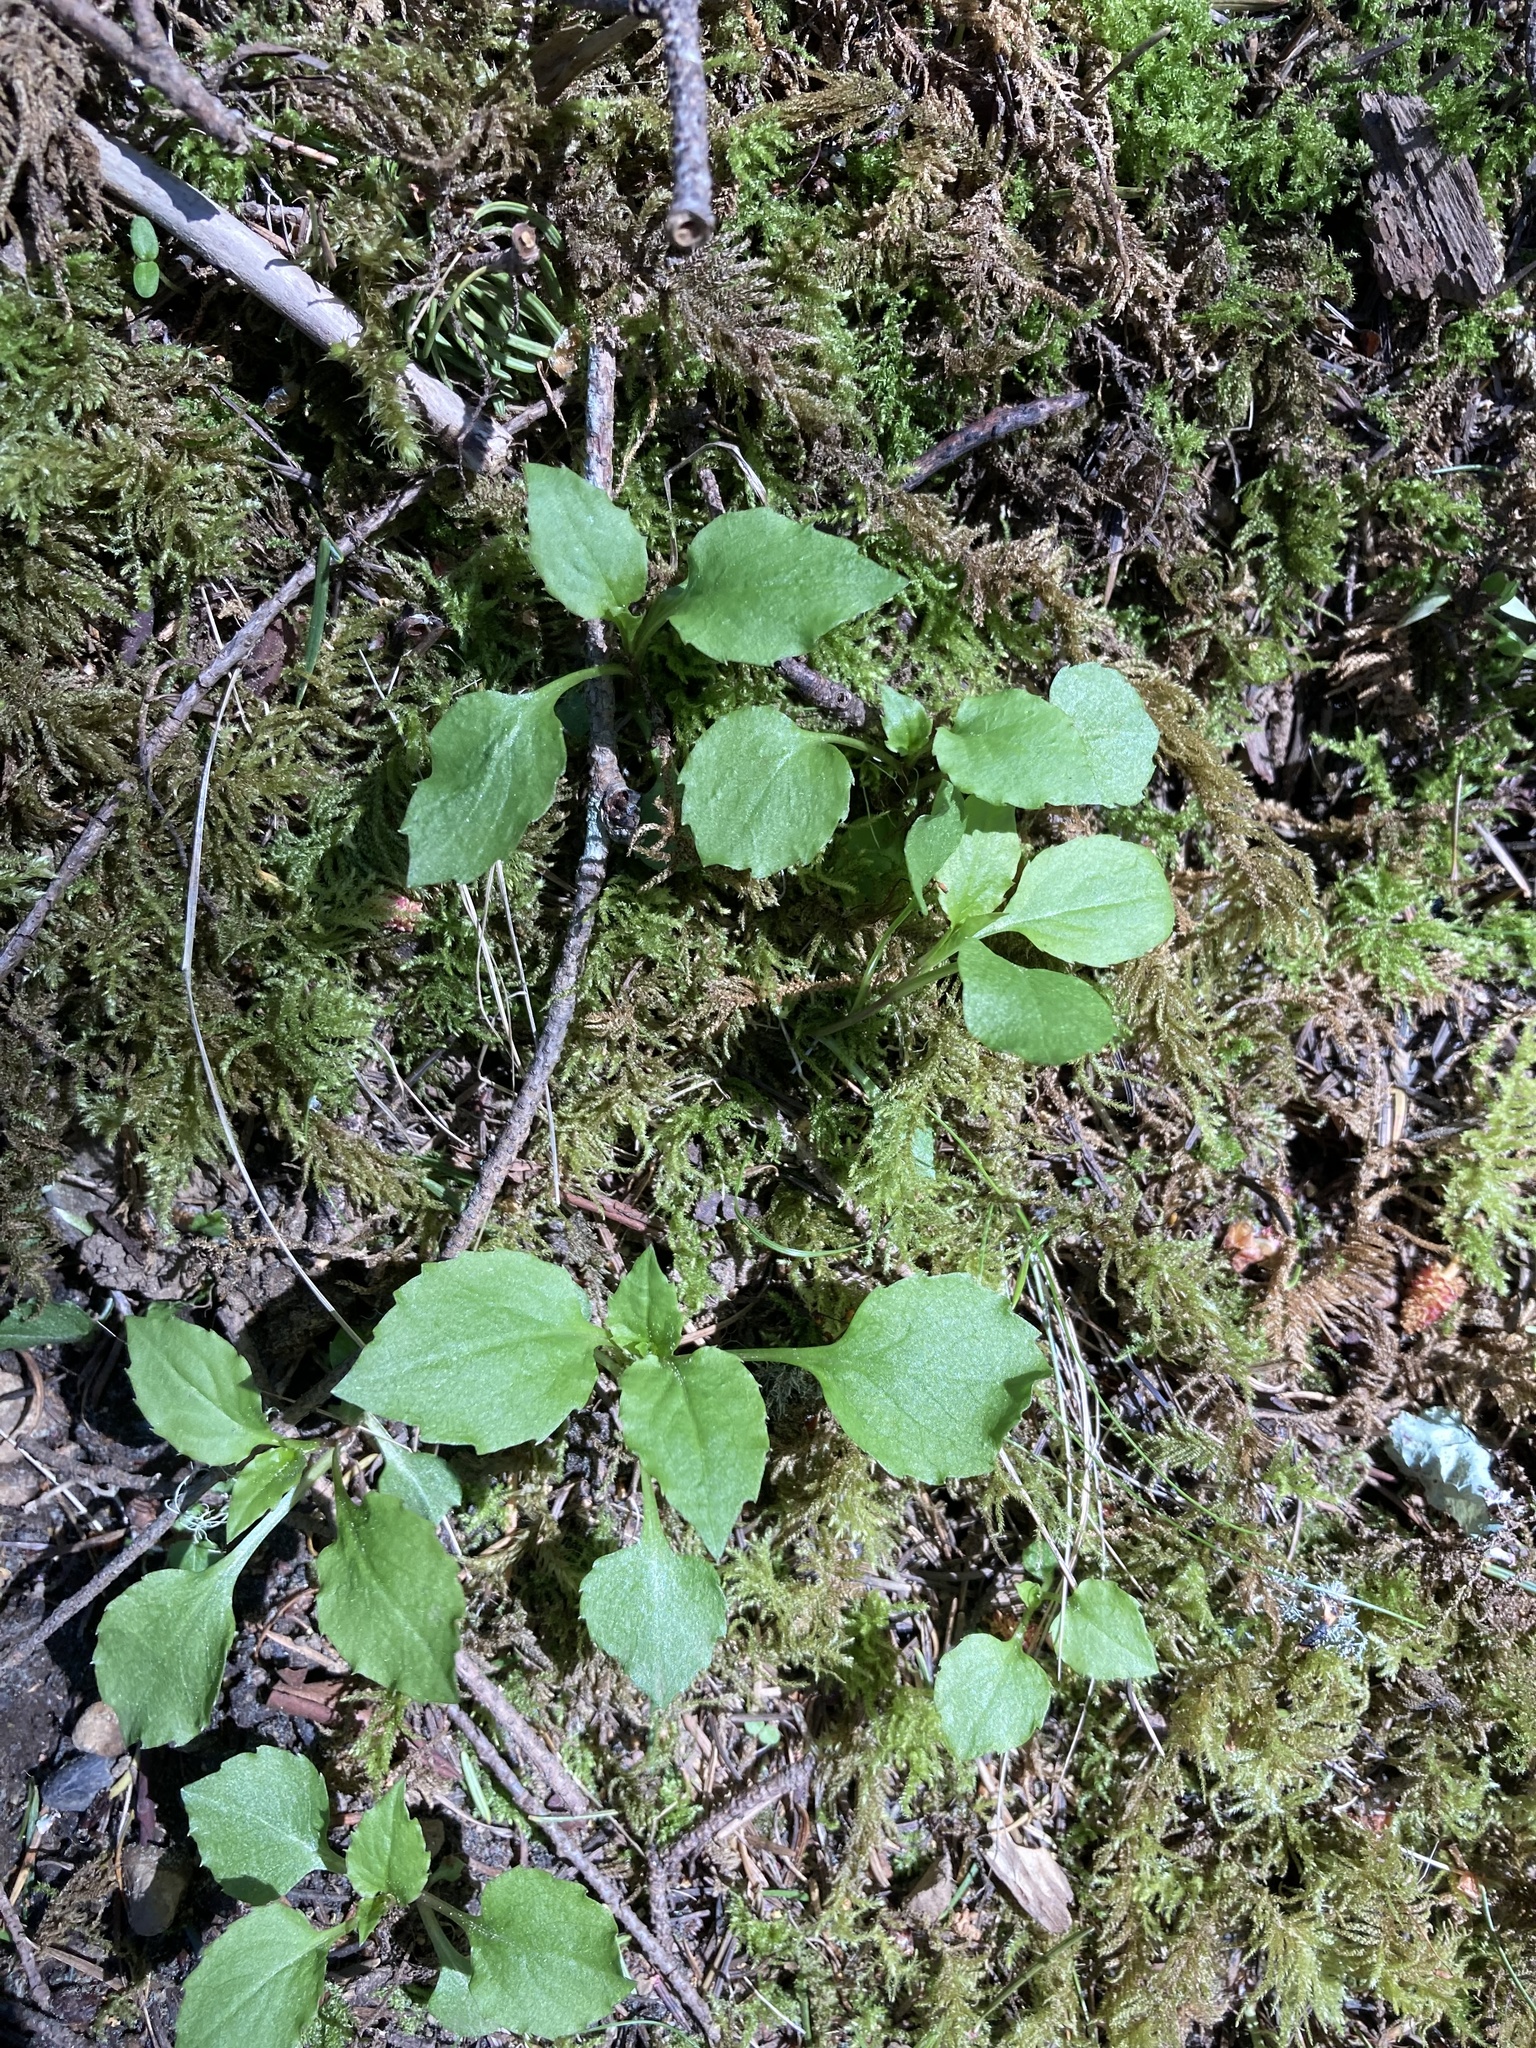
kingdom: Plantae
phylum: Tracheophyta
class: Magnoliopsida
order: Asterales
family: Campanulaceae
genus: Campanula
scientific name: Campanula scouleri
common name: Scouler's harebell
